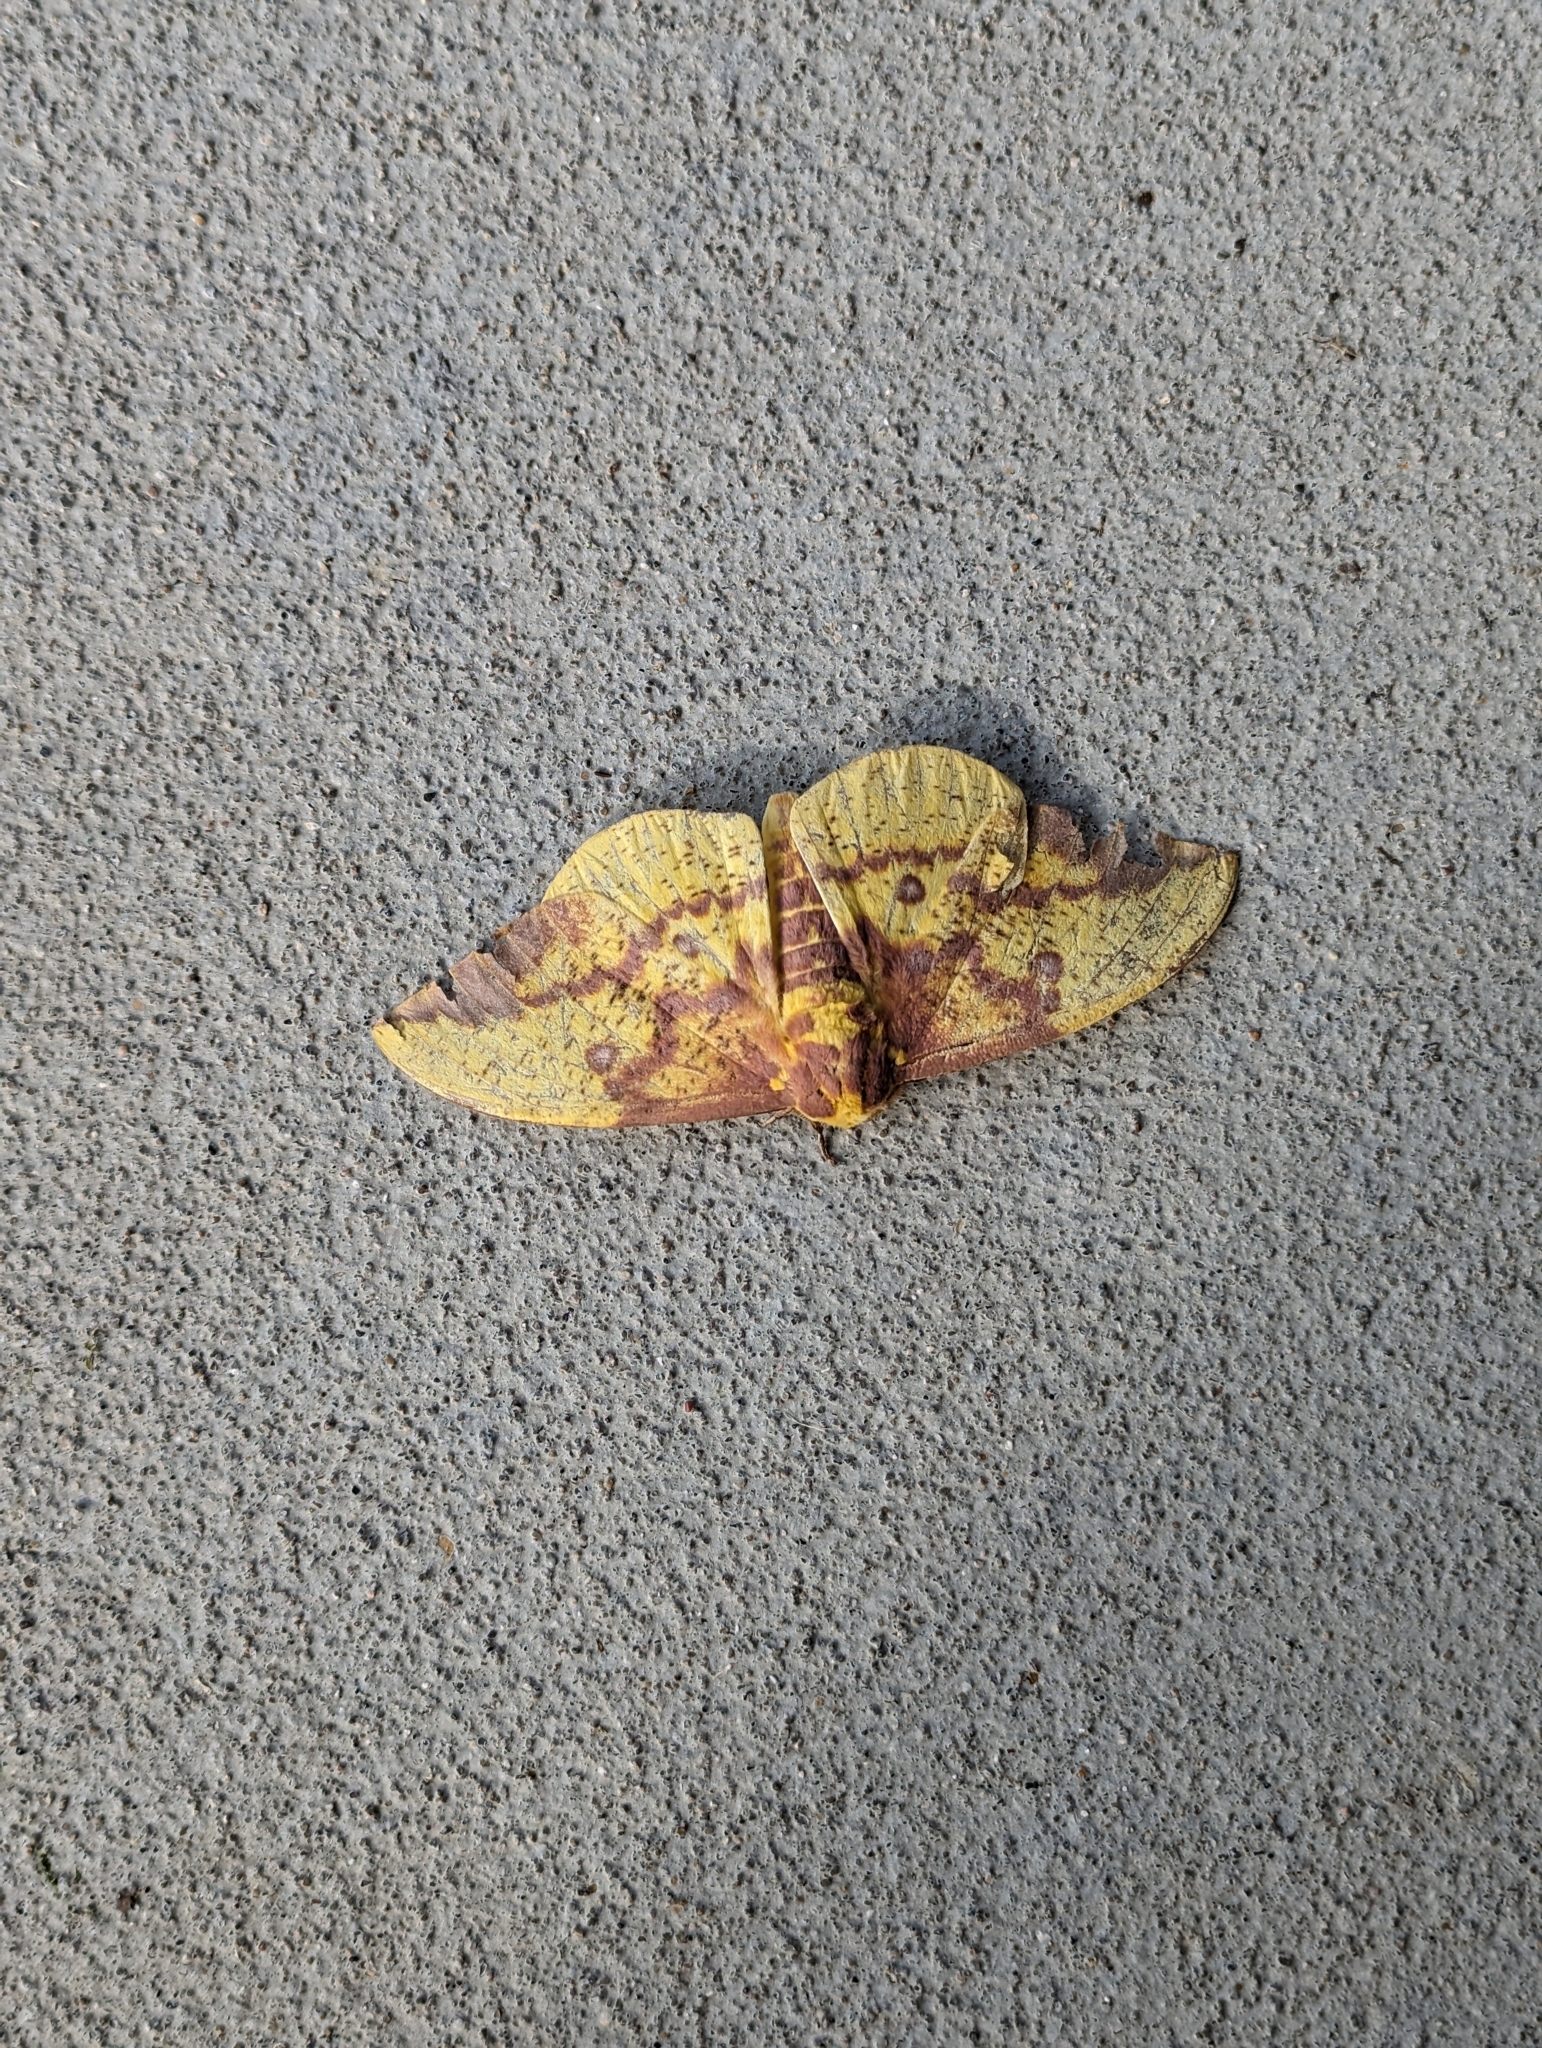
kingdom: Animalia
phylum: Arthropoda
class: Insecta
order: Lepidoptera
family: Saturniidae
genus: Eacles
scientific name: Eacles imperialis
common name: Imperial moth
